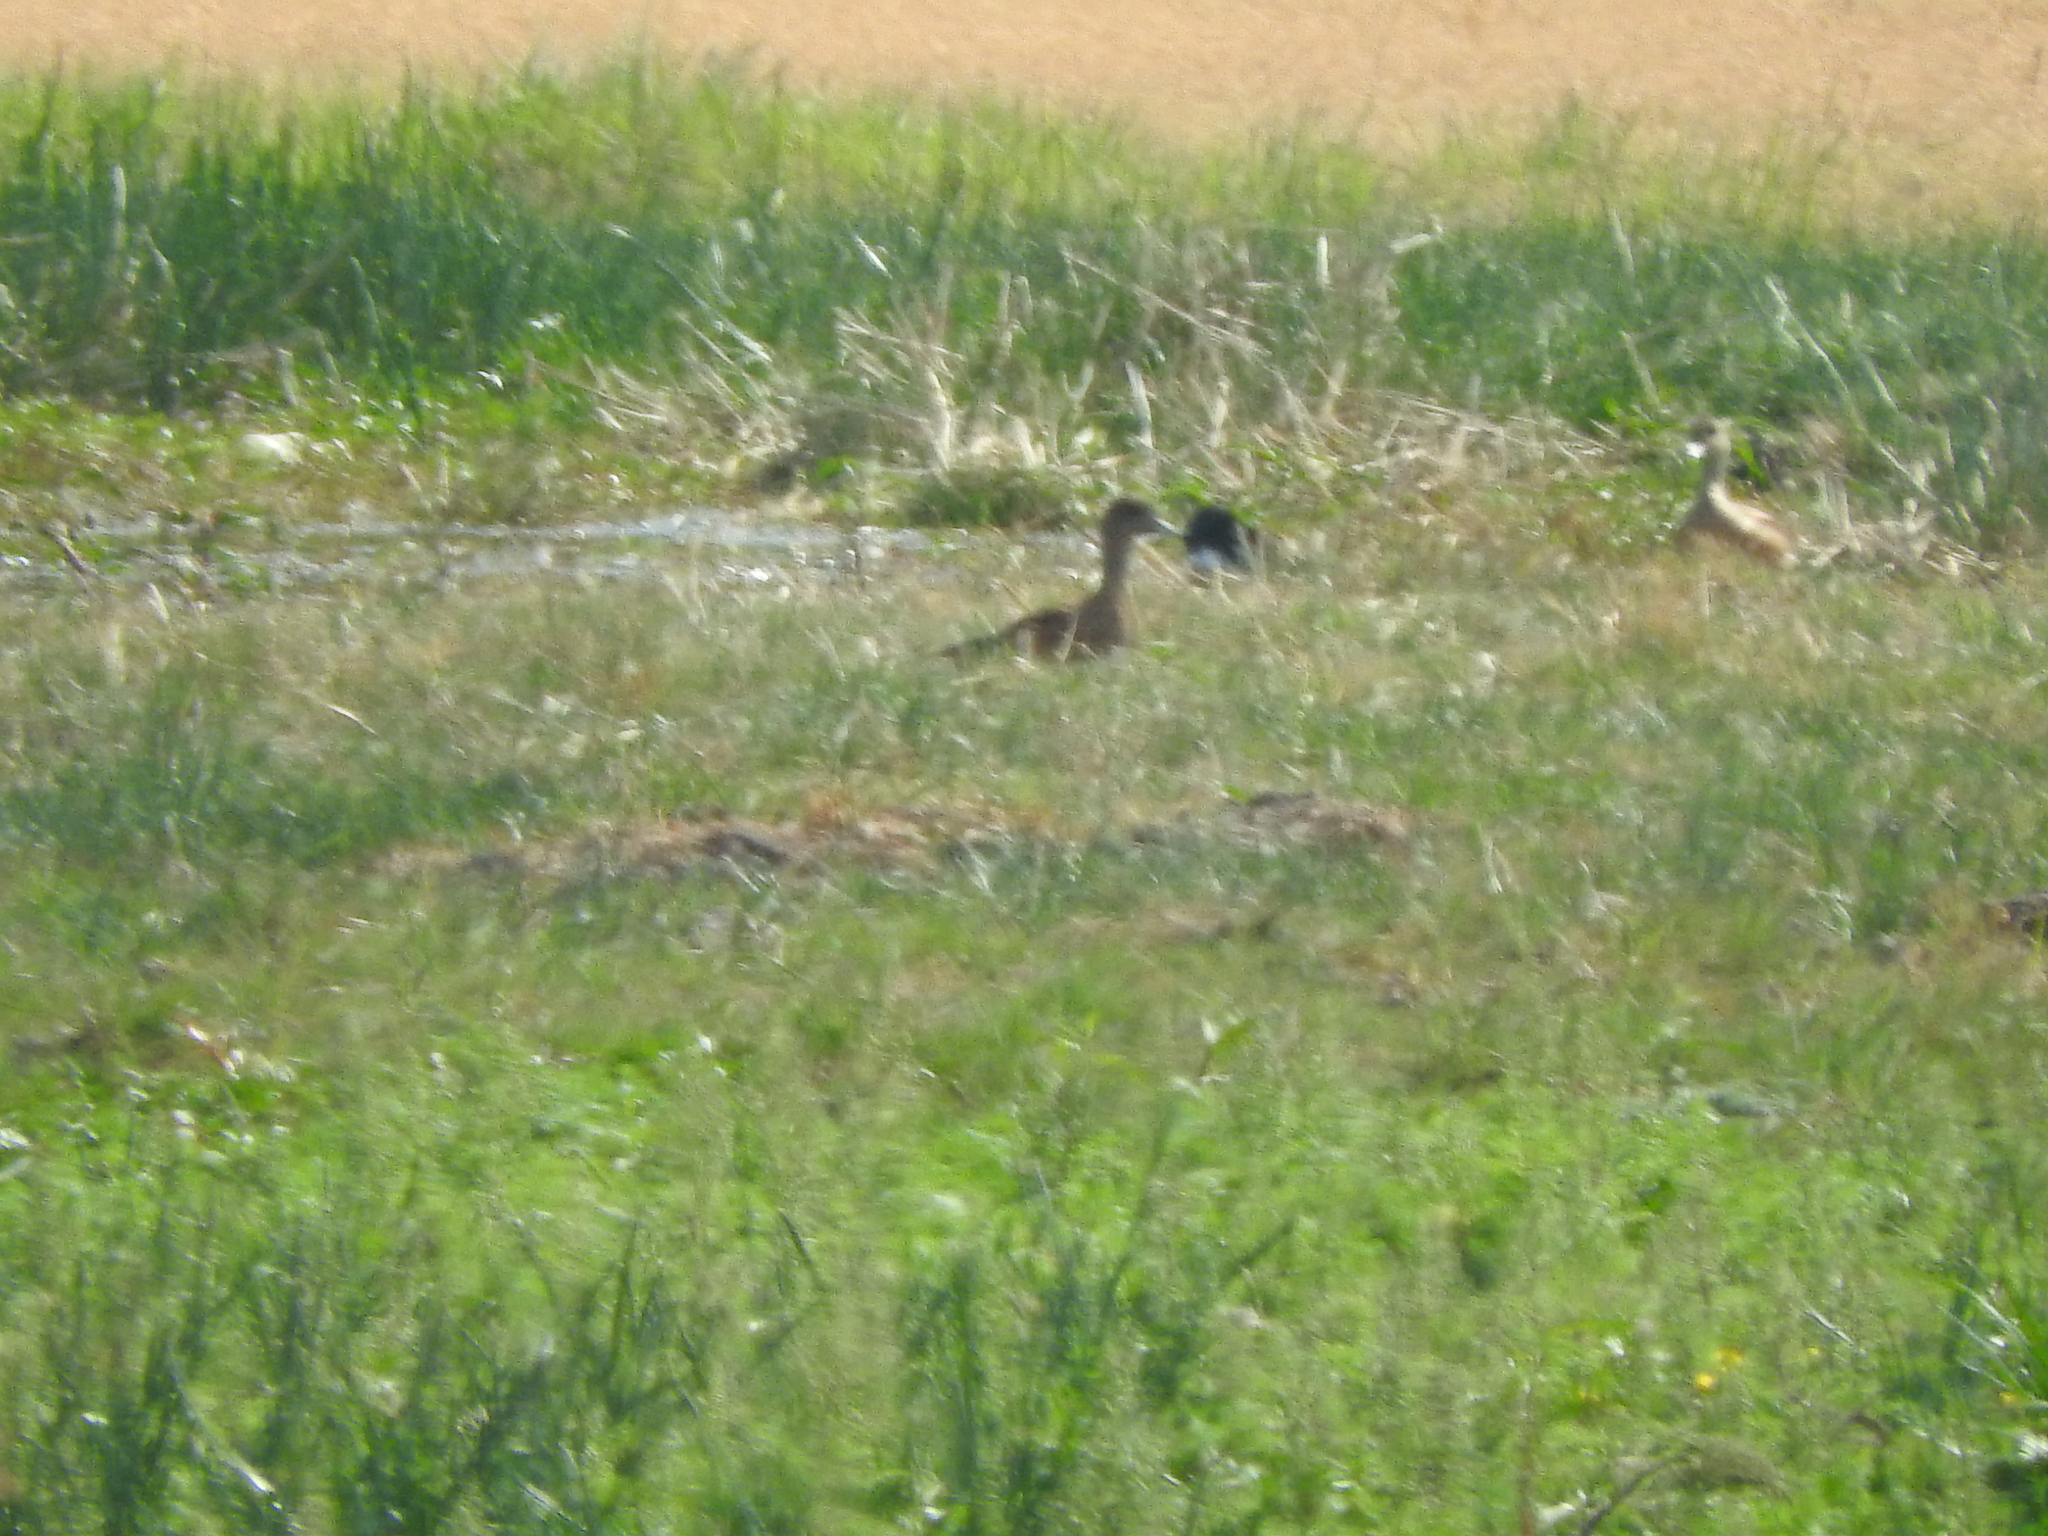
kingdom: Animalia
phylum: Chordata
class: Aves
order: Anseriformes
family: Anatidae
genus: Mareca
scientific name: Mareca strepera
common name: Gadwall
